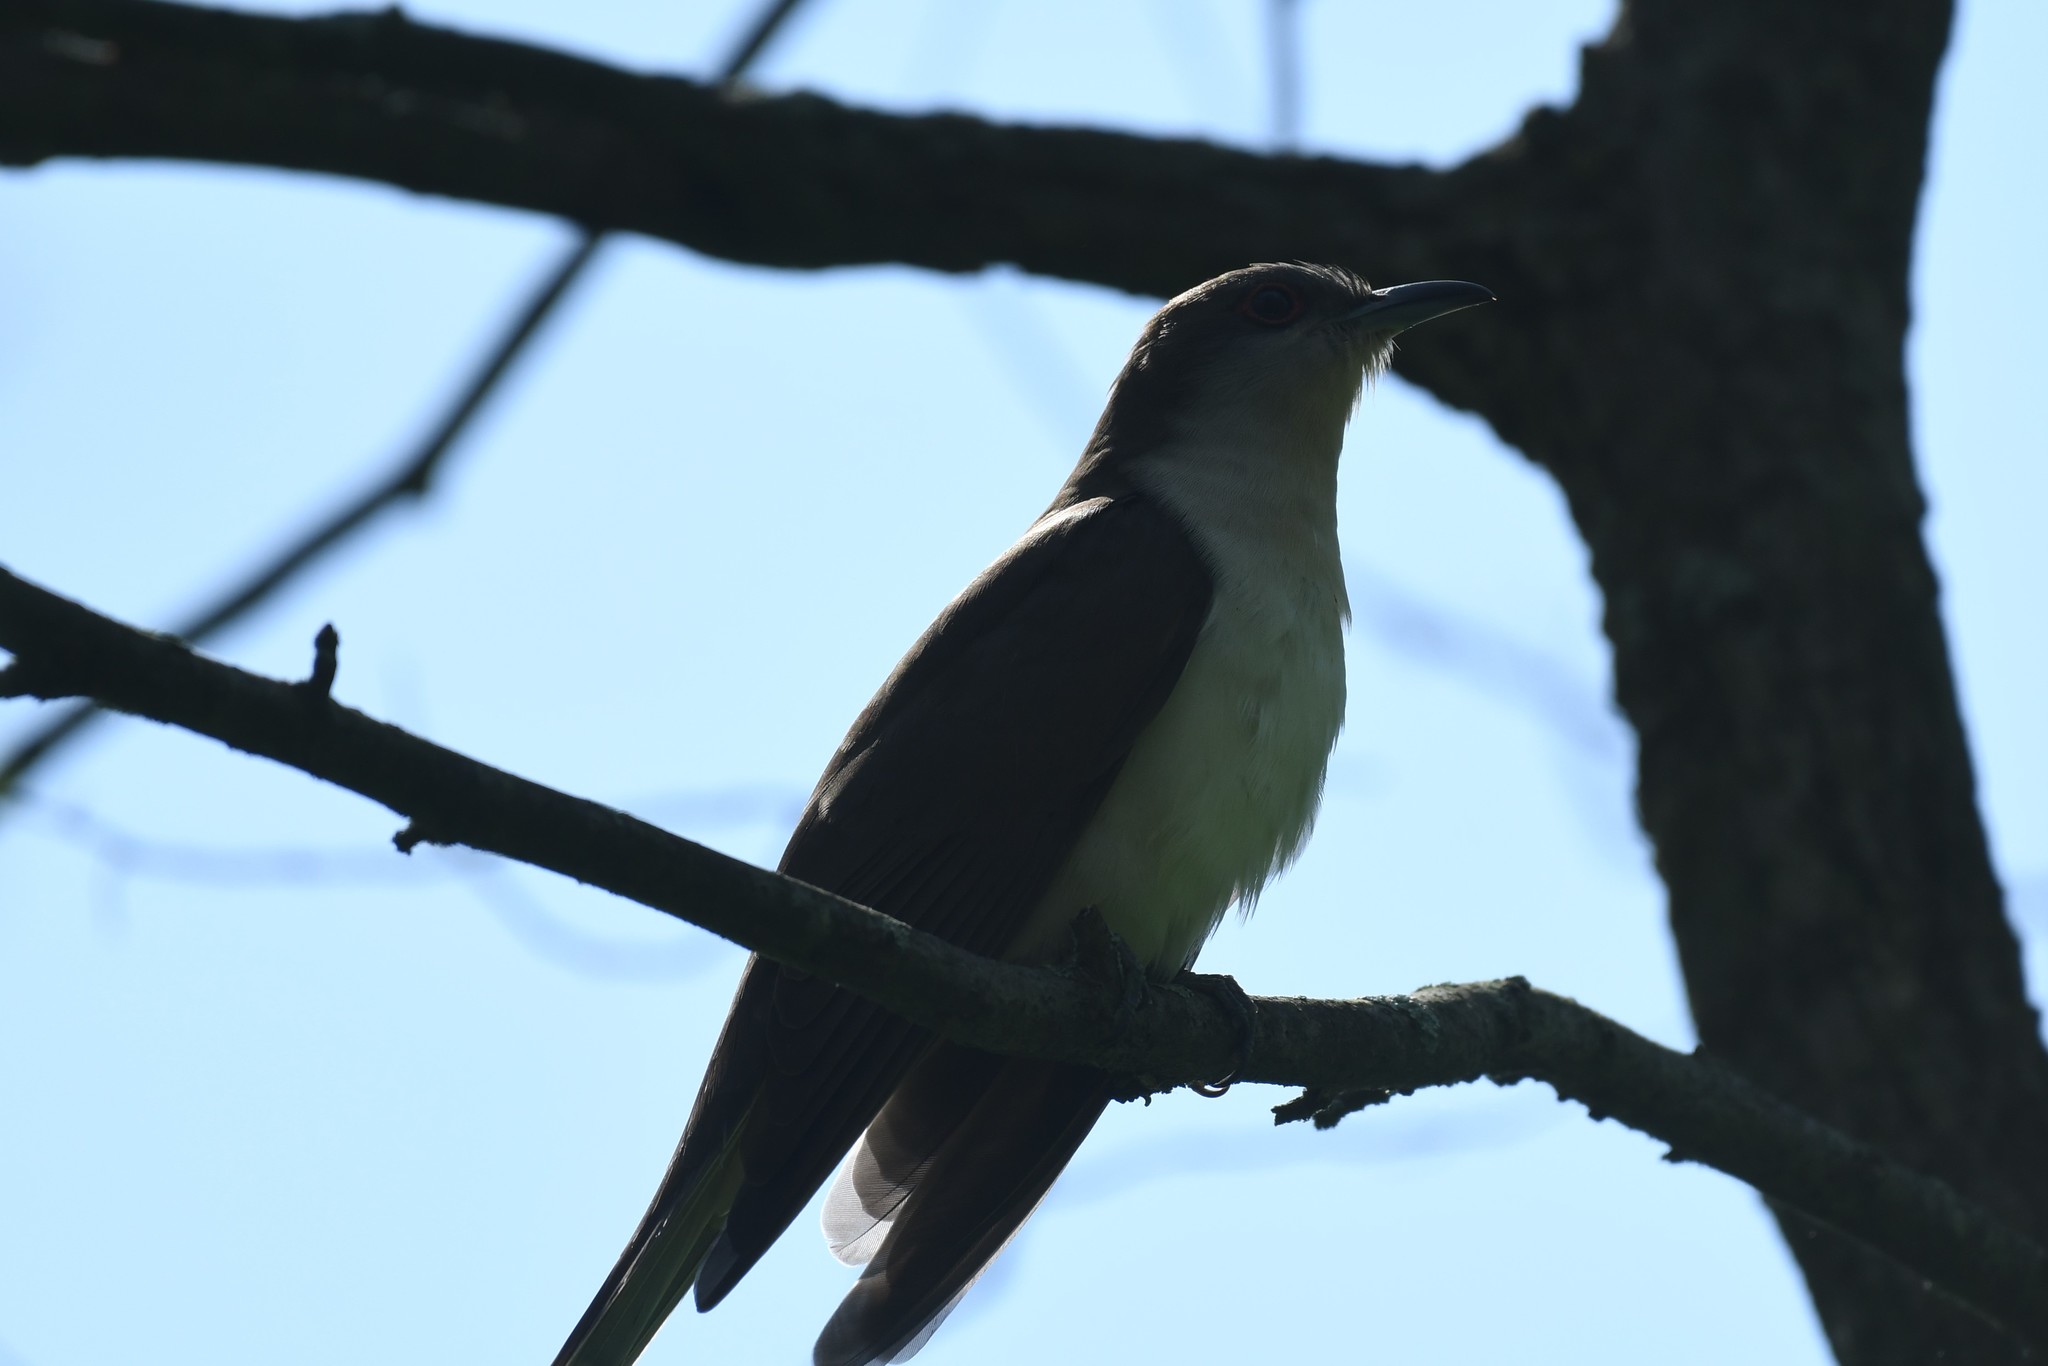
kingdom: Animalia
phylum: Chordata
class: Aves
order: Cuculiformes
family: Cuculidae
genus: Coccyzus
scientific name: Coccyzus erythropthalmus
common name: Black-billed cuckoo
